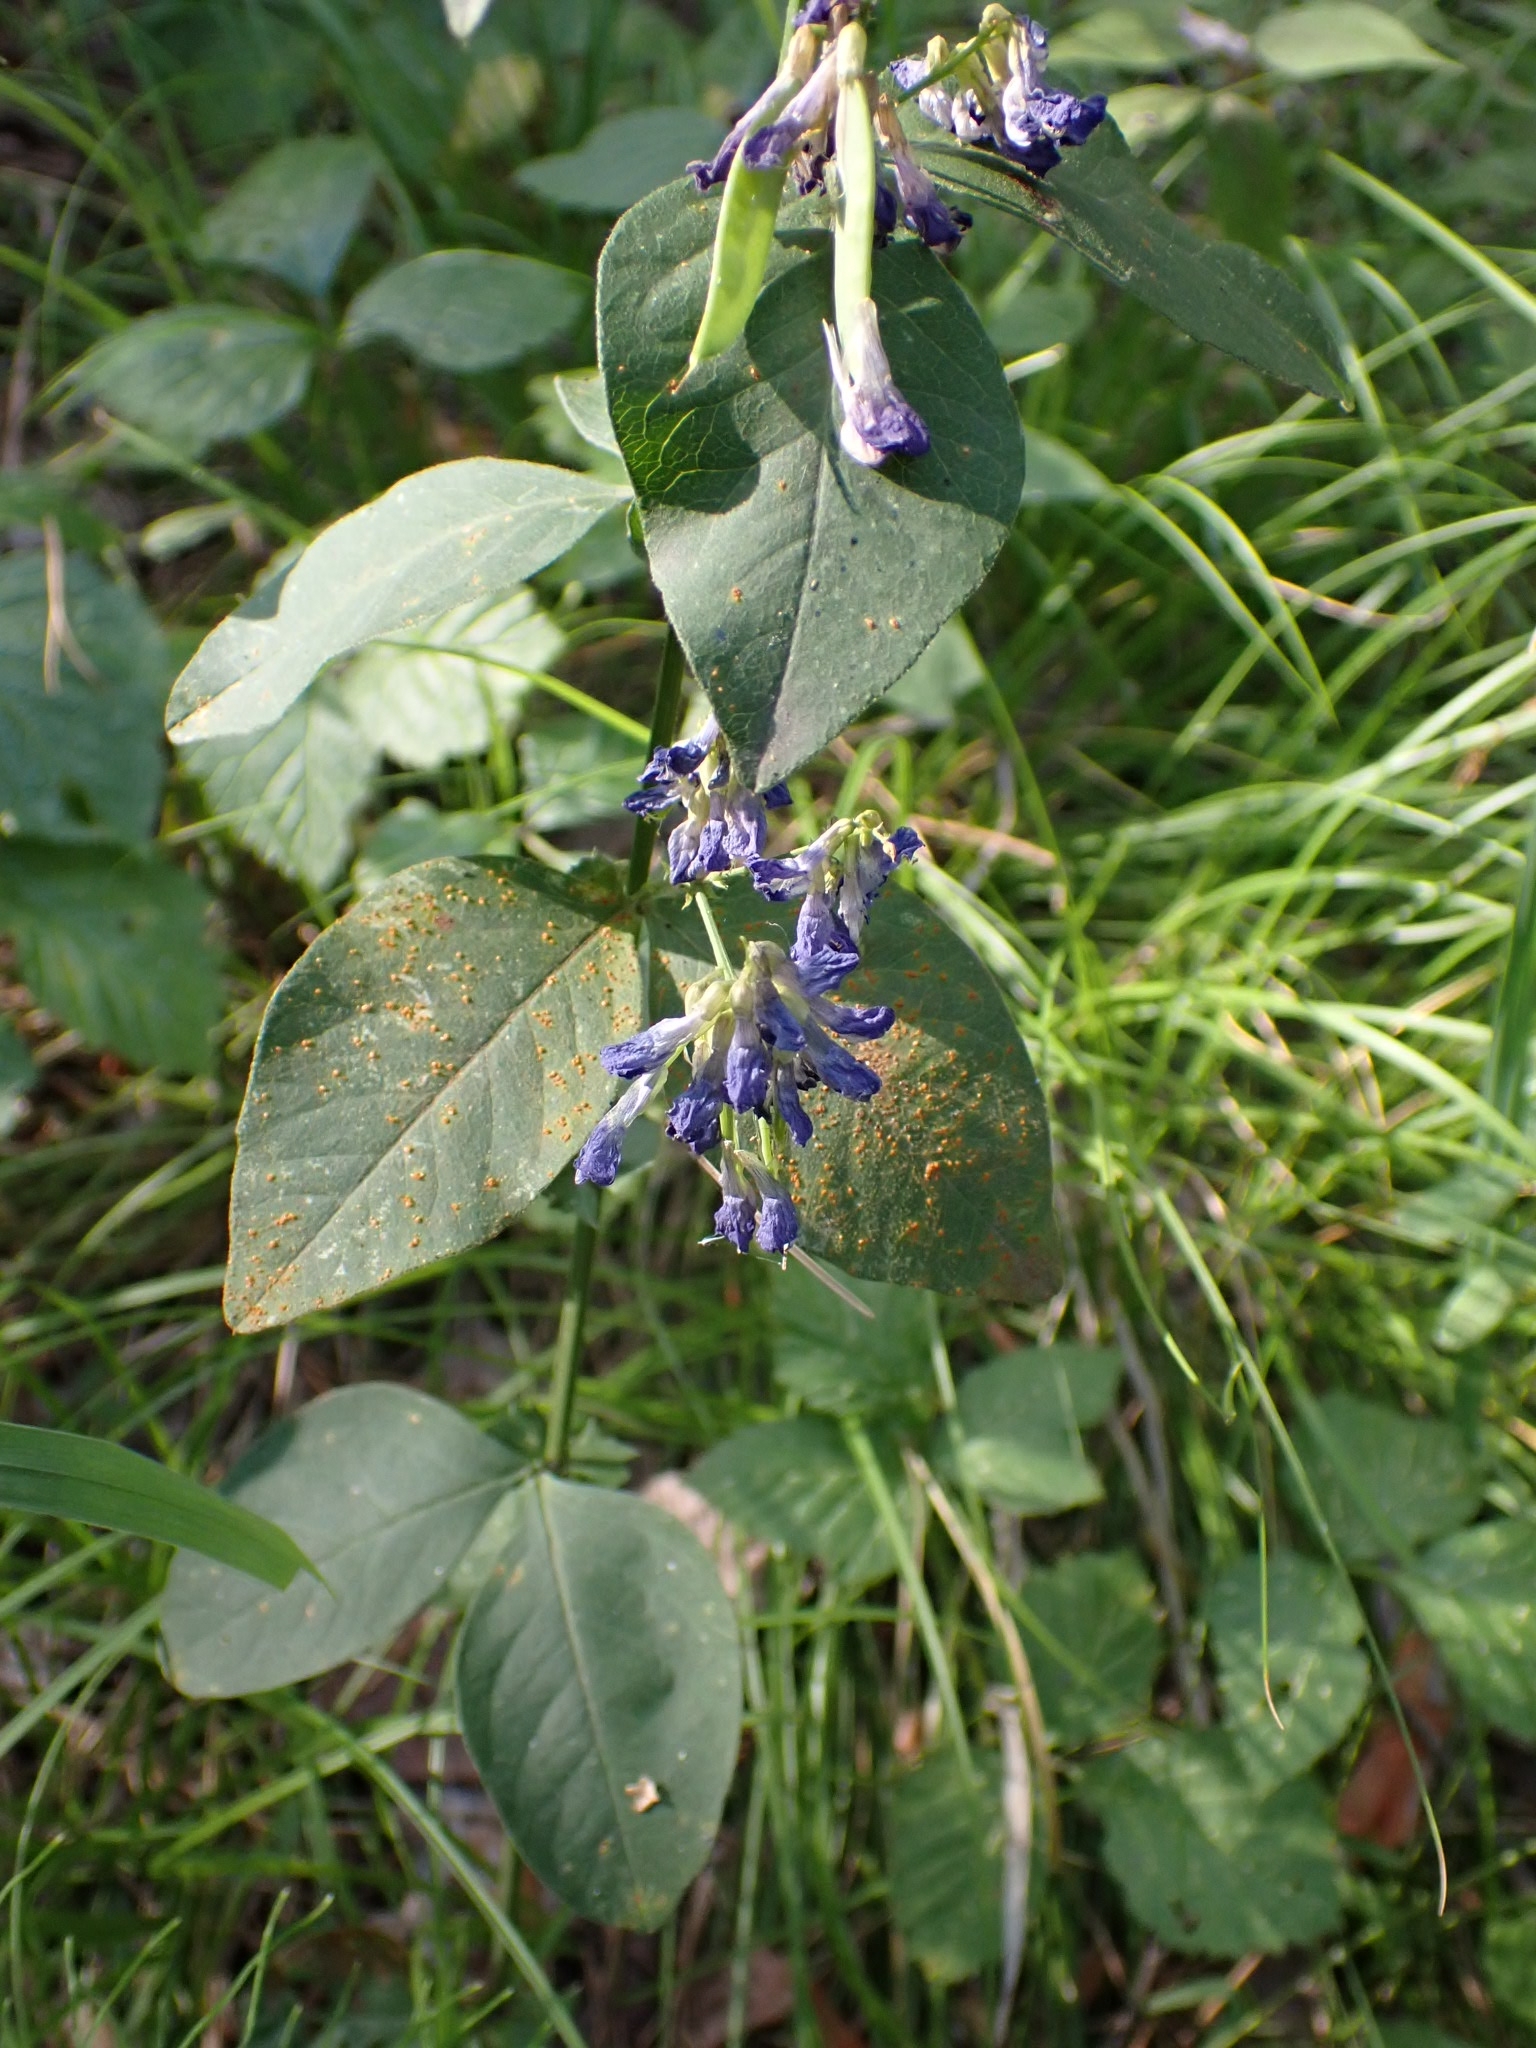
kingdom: Plantae
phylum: Tracheophyta
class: Magnoliopsida
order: Fabales
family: Fabaceae
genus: Vicia
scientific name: Vicia unijuga
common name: Two-leaf vetch
